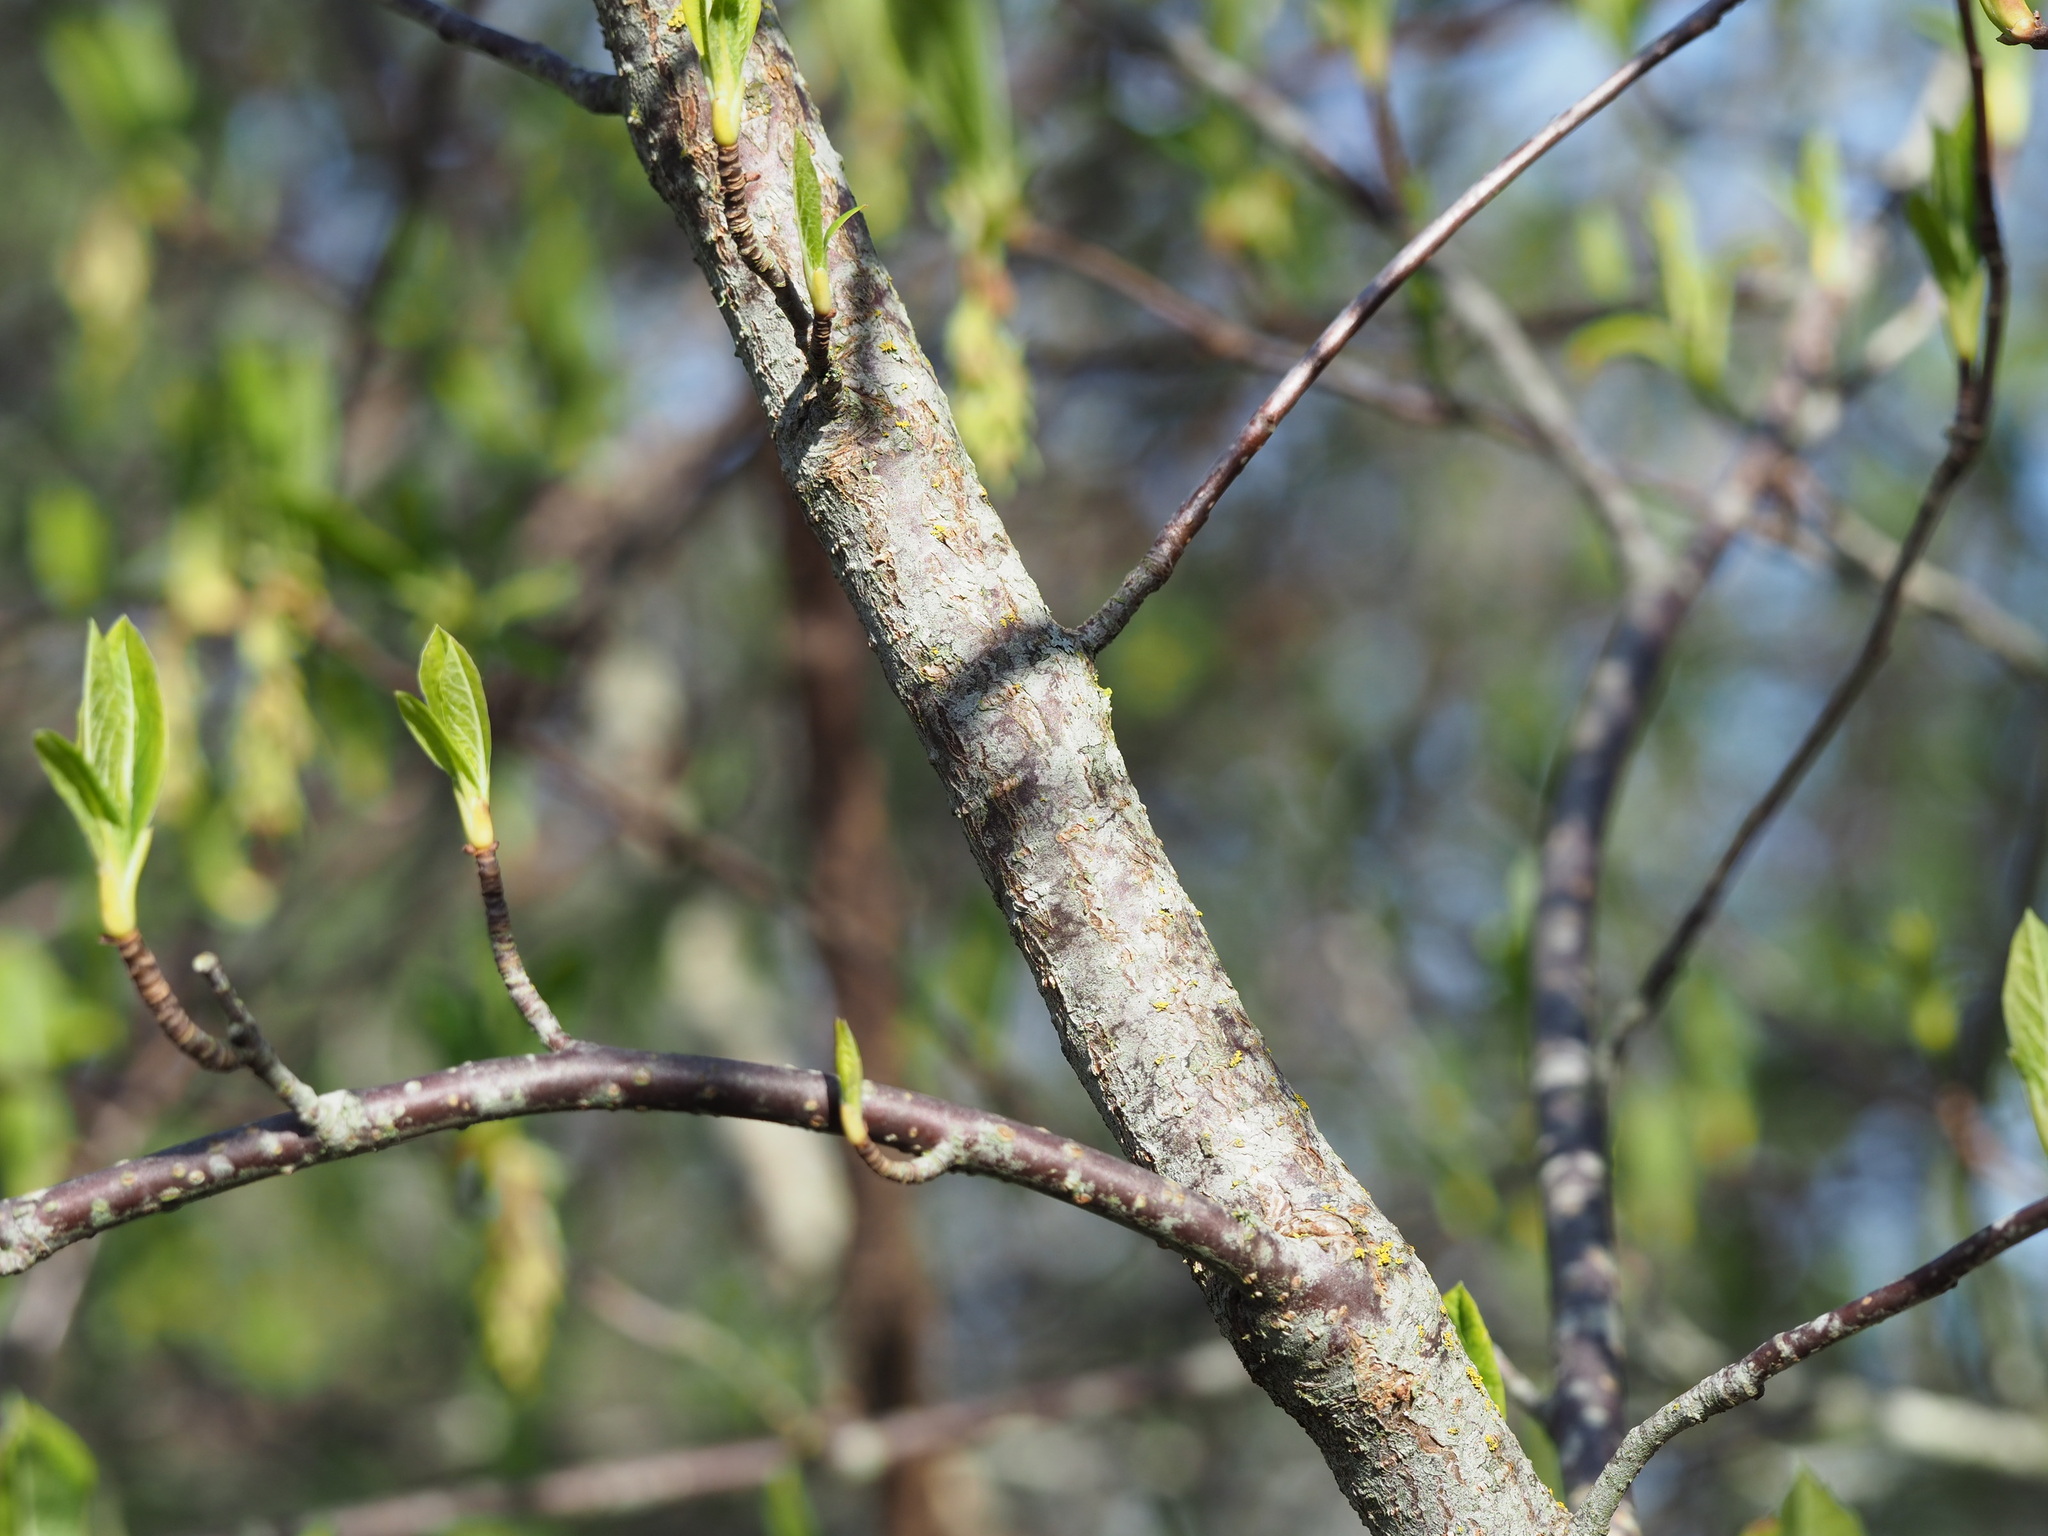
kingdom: Plantae
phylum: Tracheophyta
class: Magnoliopsida
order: Rosales
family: Rosaceae
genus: Oemleria
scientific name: Oemleria cerasiformis
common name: Osoberry
